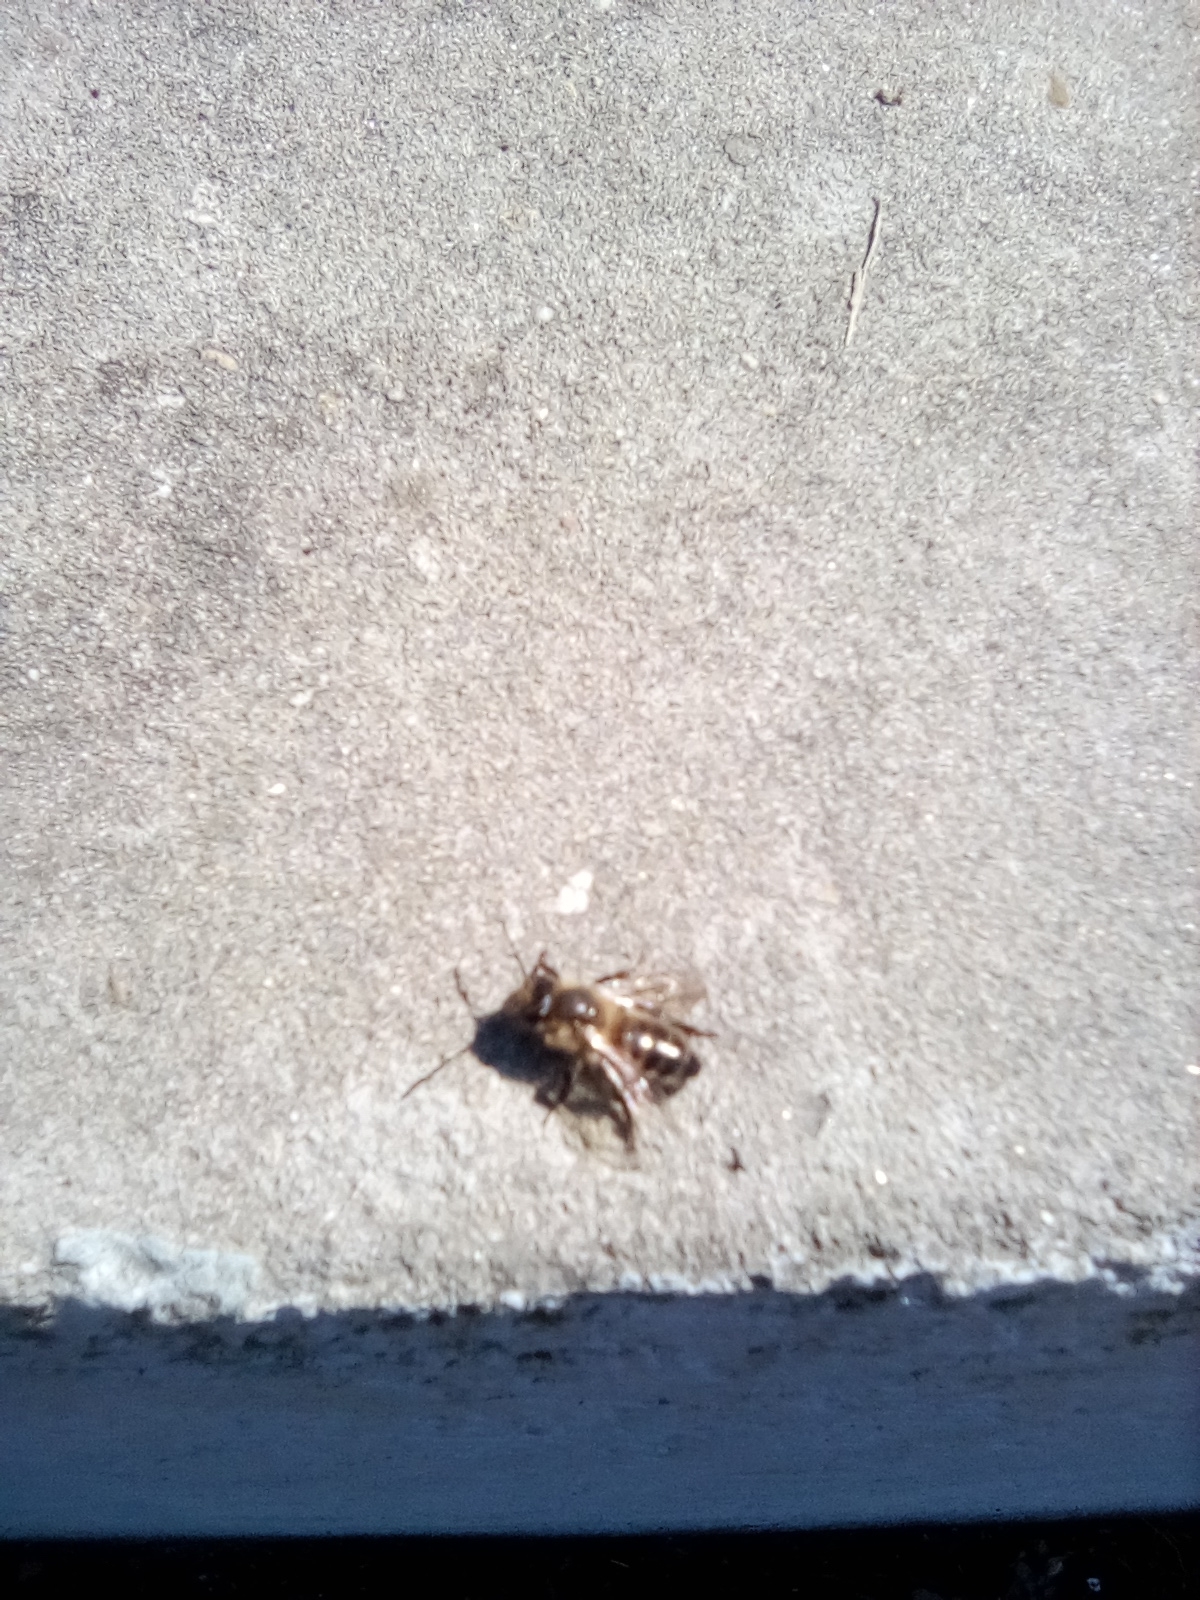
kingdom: Animalia
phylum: Arthropoda
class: Insecta
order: Hymenoptera
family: Apidae
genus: Apis
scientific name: Apis mellifera
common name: Honey bee
